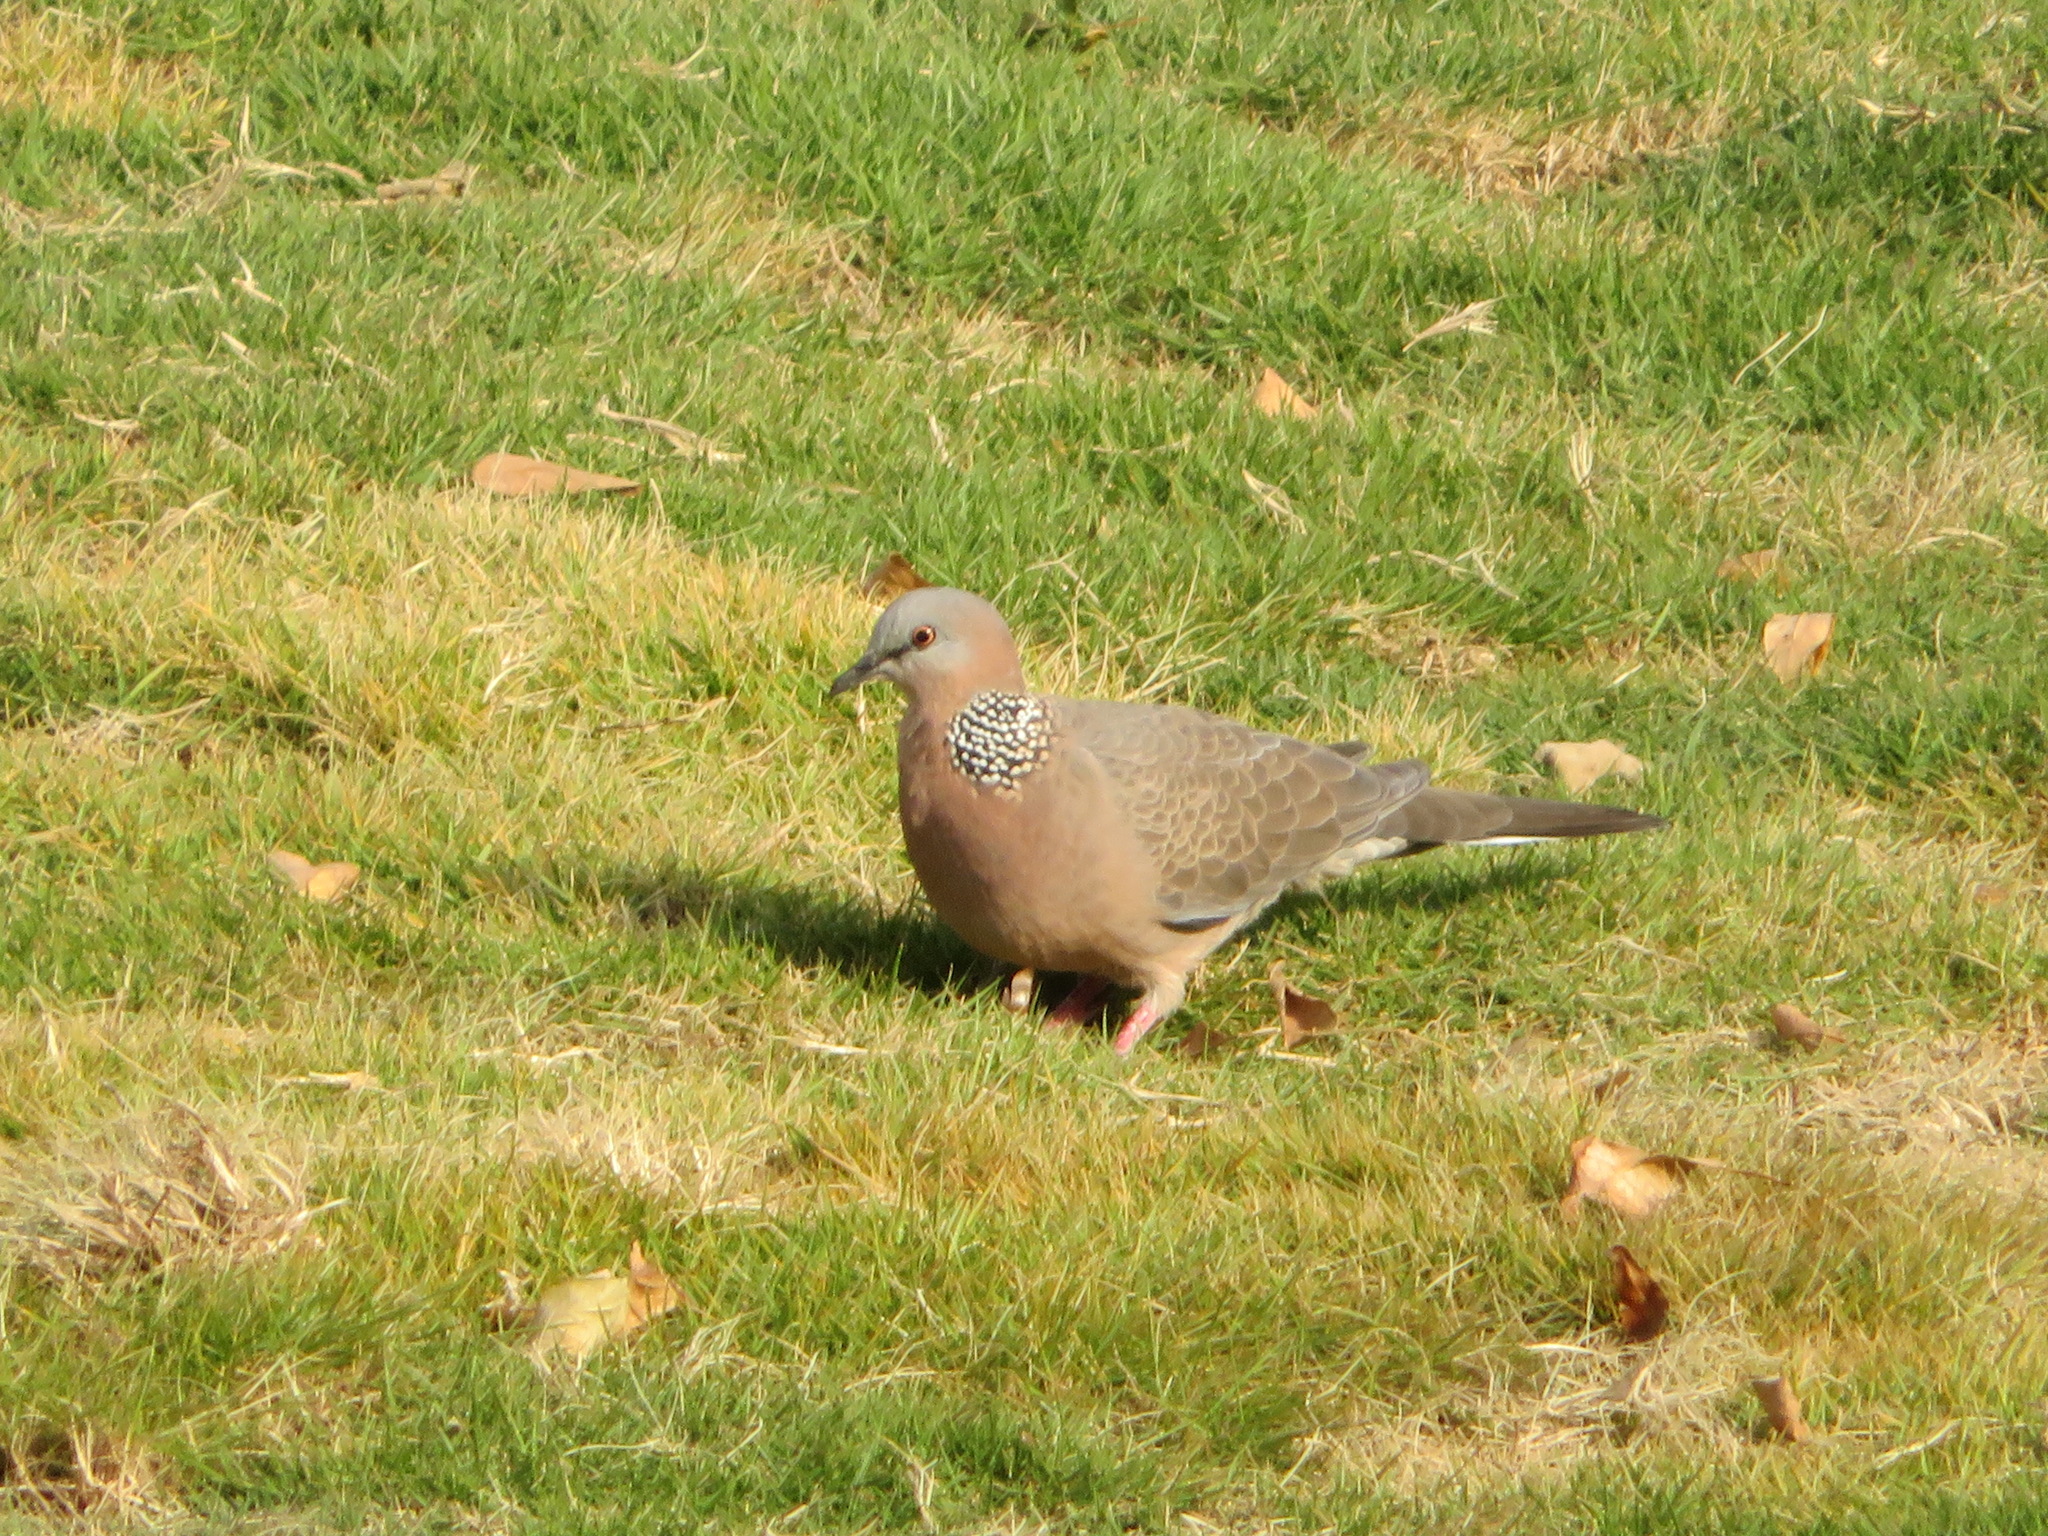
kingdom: Animalia
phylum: Chordata
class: Aves
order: Columbiformes
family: Columbidae
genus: Spilopelia
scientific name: Spilopelia chinensis
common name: Spotted dove
